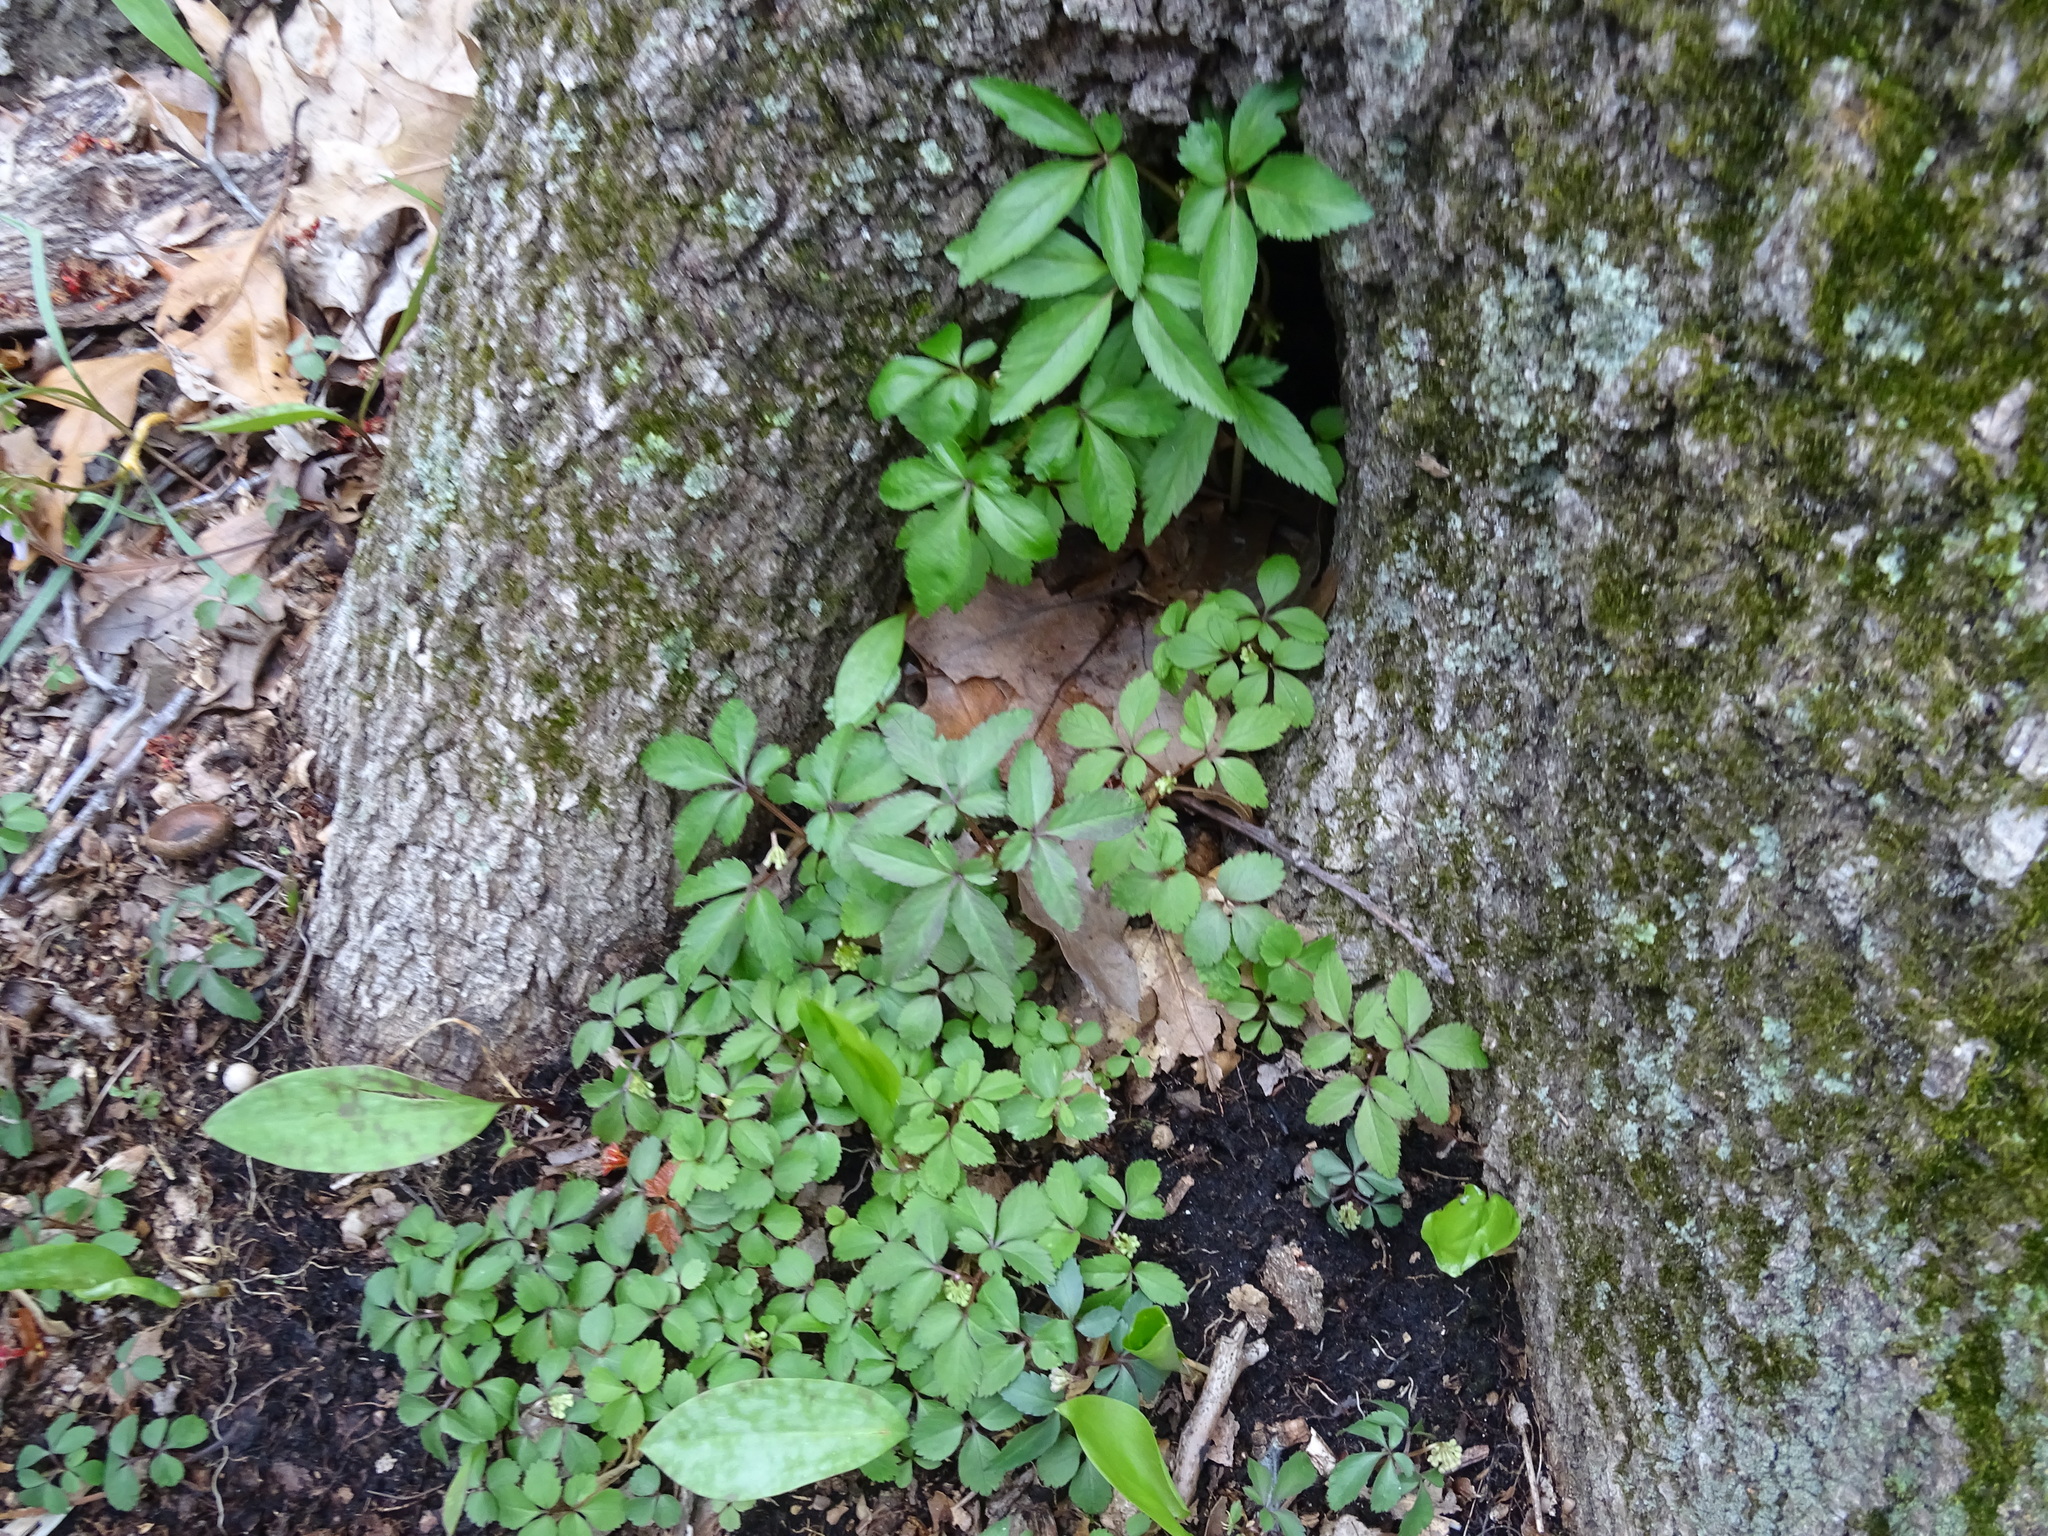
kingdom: Plantae
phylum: Tracheophyta
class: Magnoliopsida
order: Apiales
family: Araliaceae
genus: Panax
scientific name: Panax trifolius
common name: Dwarf ginseng
